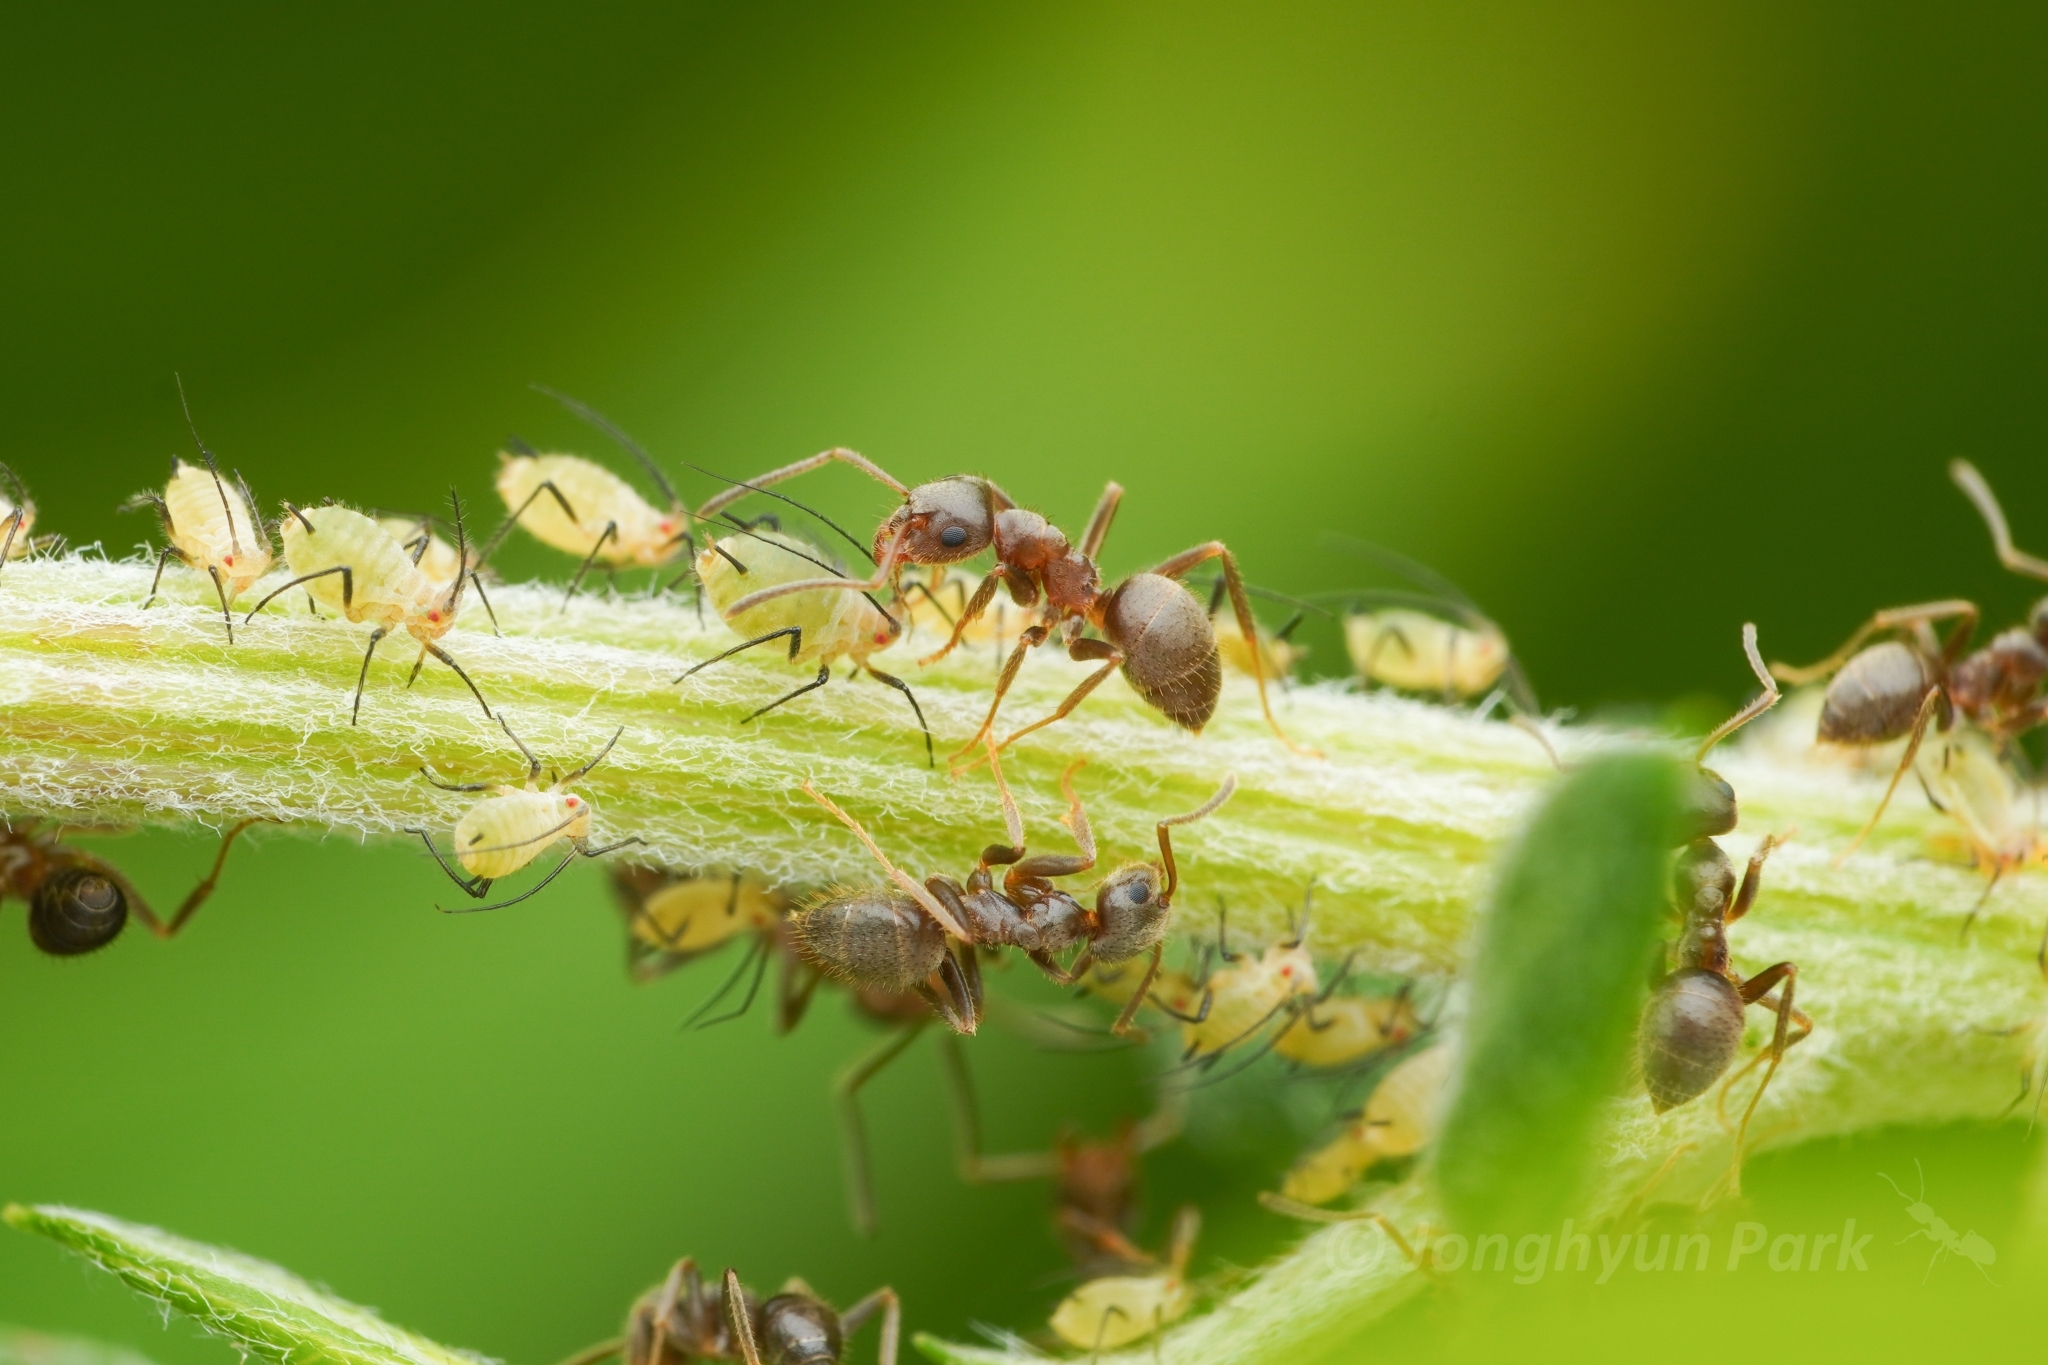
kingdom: Animalia
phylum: Arthropoda
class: Insecta
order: Hymenoptera
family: Formicidae
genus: Lasius
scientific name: Lasius sakagamii
